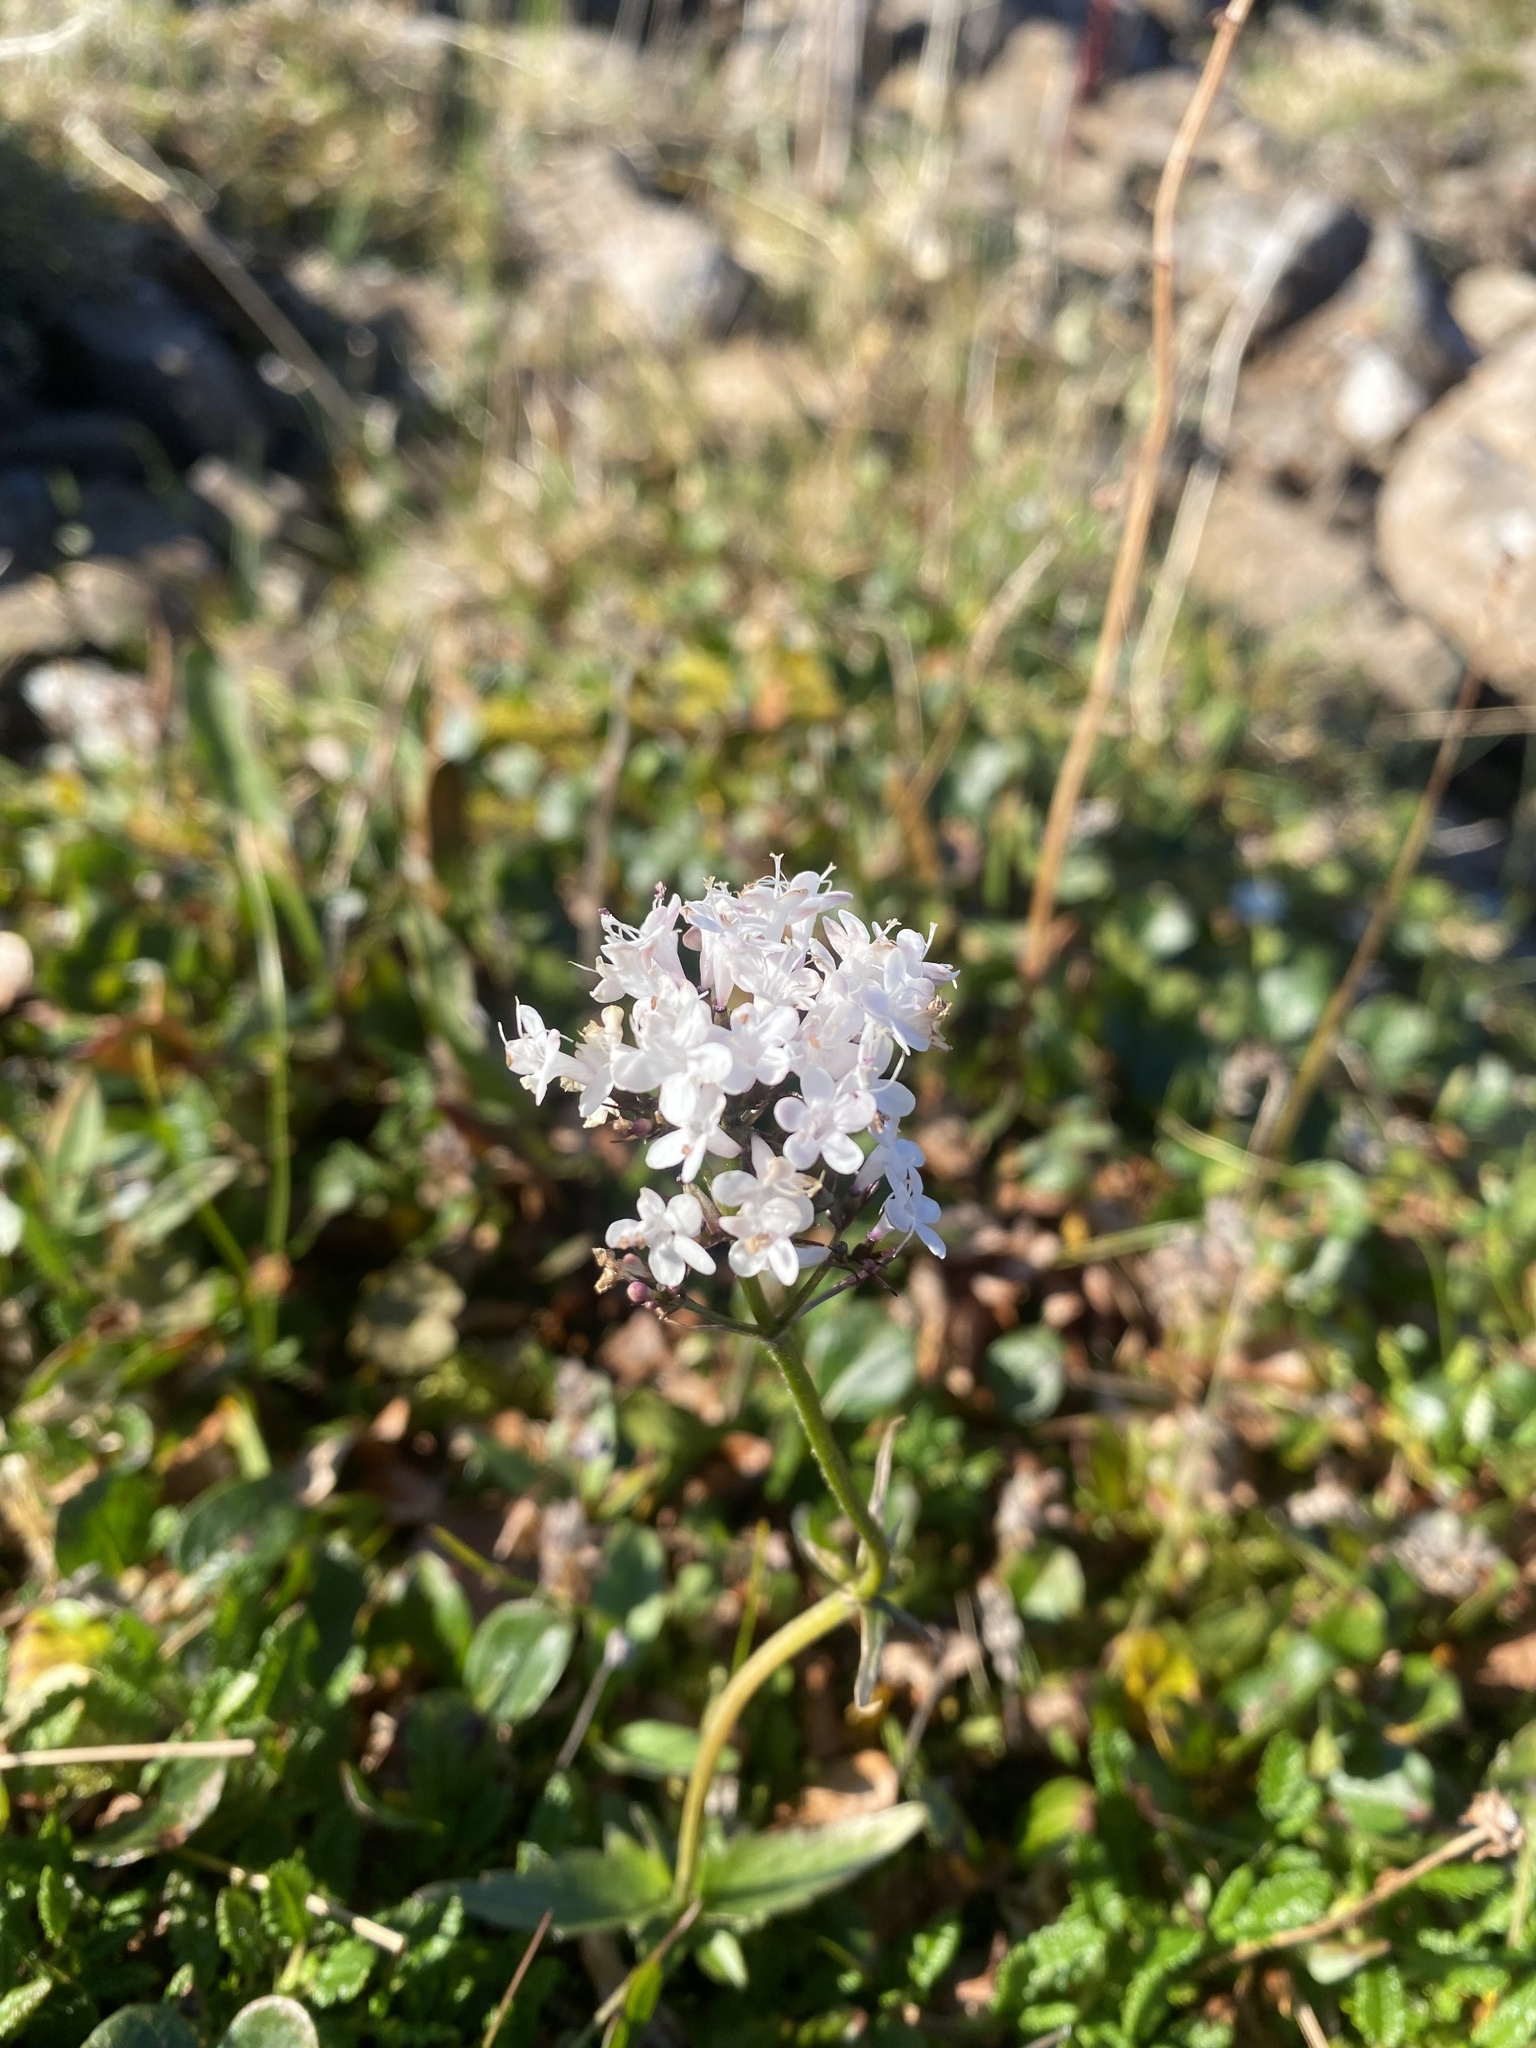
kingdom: Plantae
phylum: Tracheophyta
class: Magnoliopsida
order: Dipsacales
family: Caprifoliaceae
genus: Valeriana
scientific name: Valeriana capitata
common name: Capitate valerian
